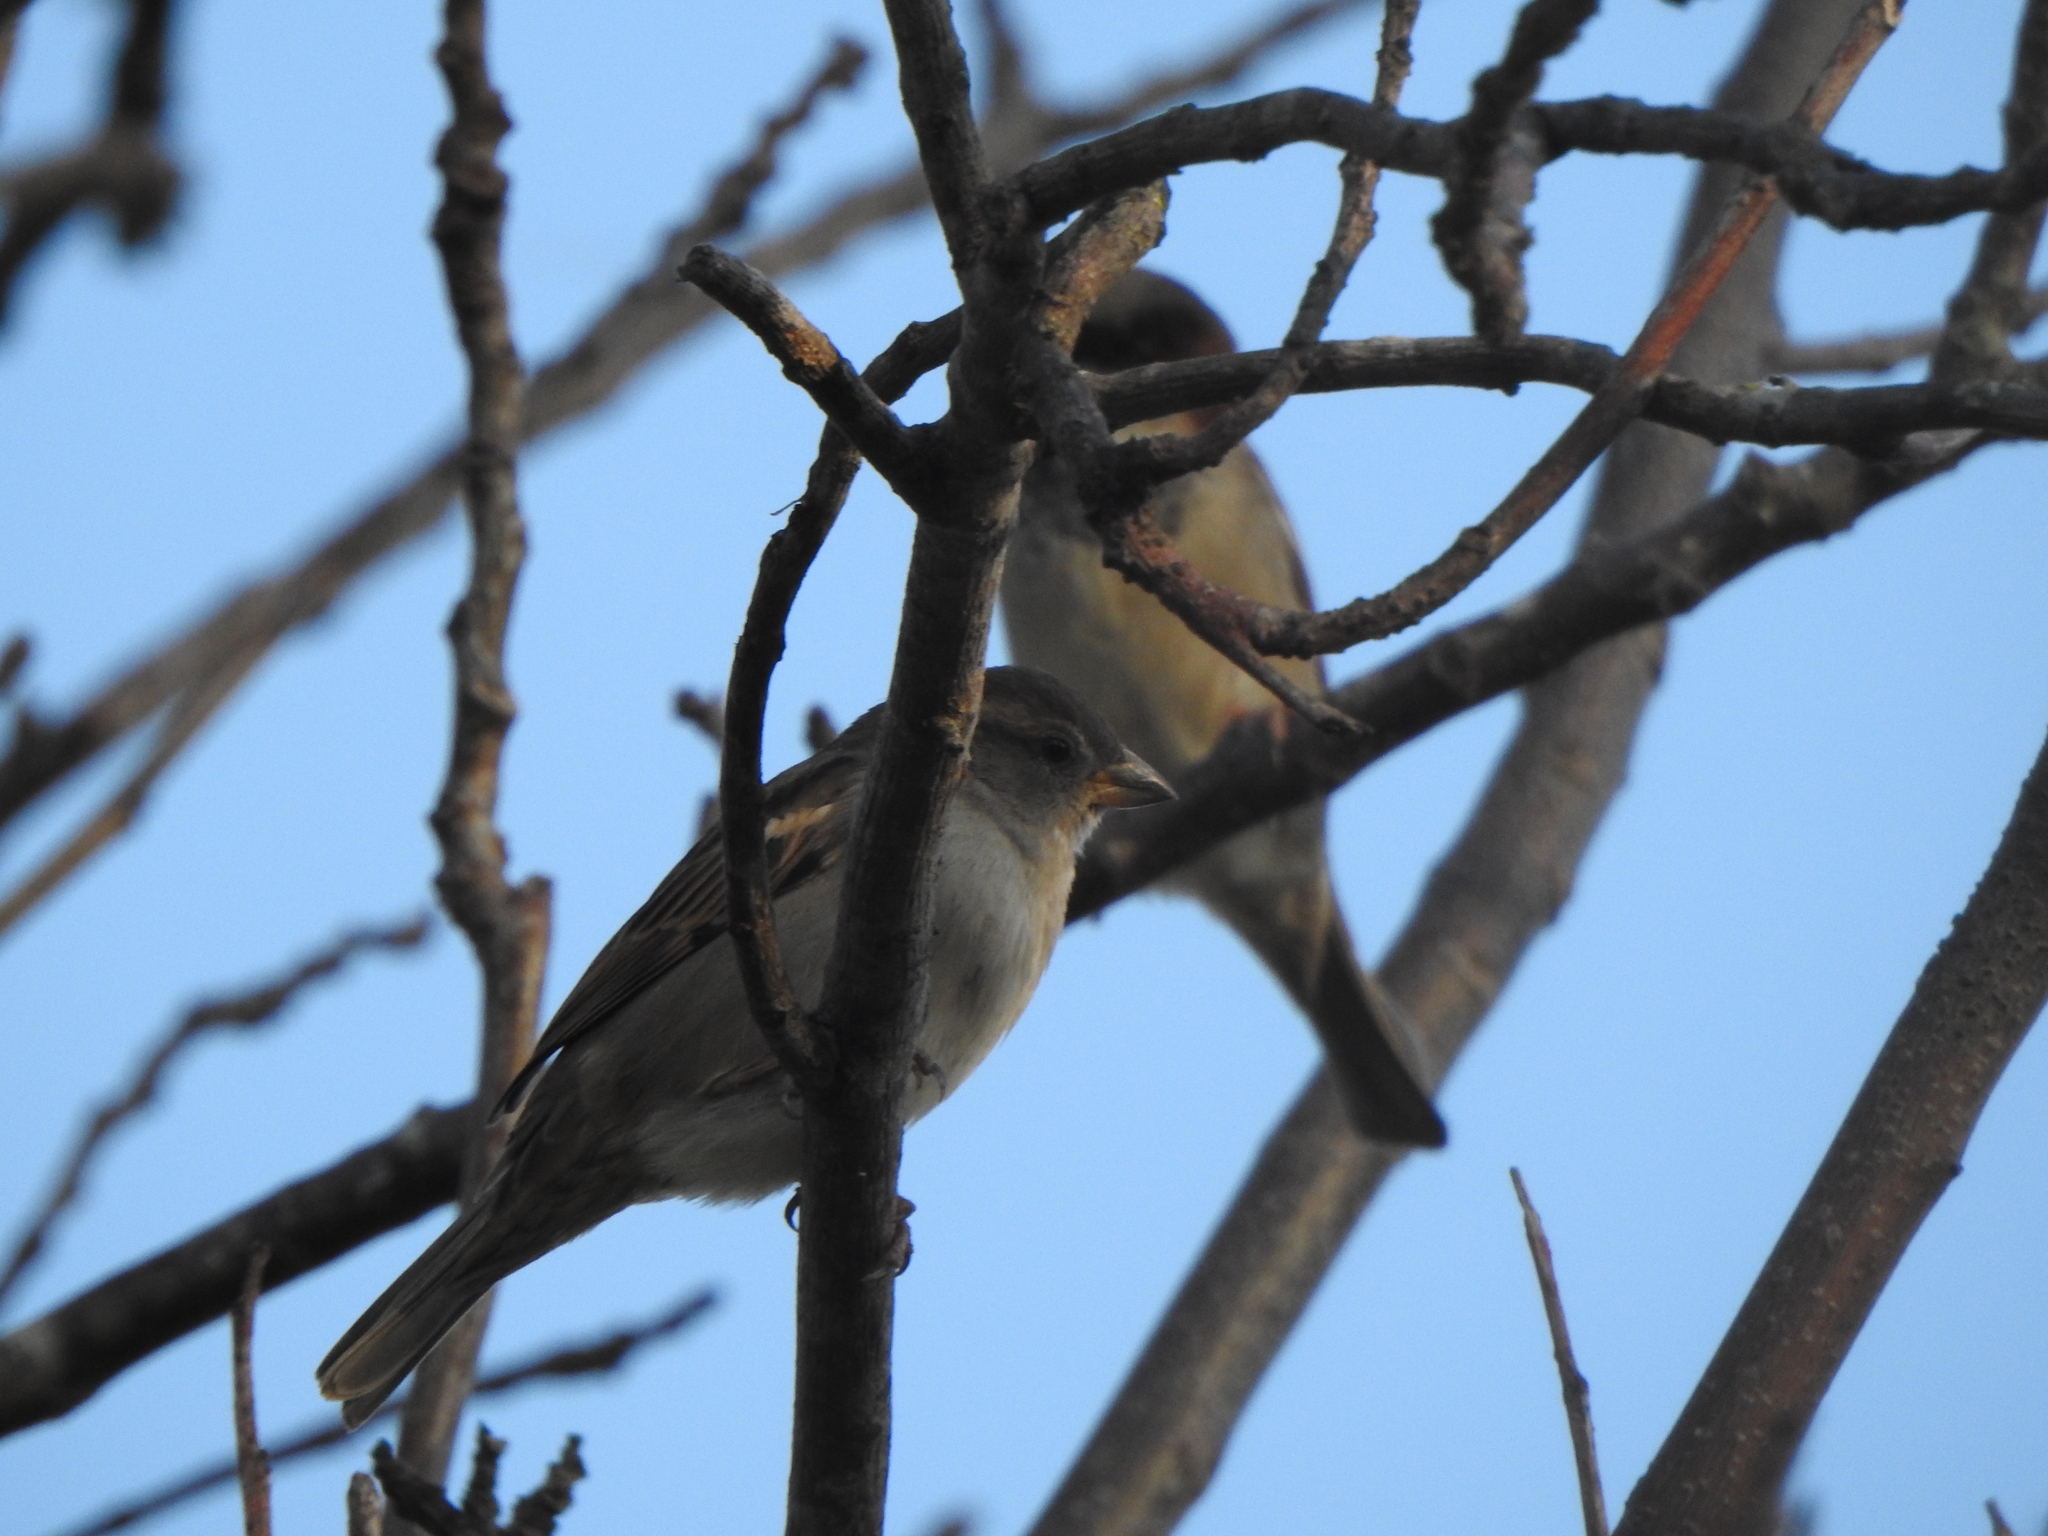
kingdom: Animalia
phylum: Chordata
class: Aves
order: Passeriformes
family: Passeridae
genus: Passer
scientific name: Passer domesticus
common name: House sparrow
